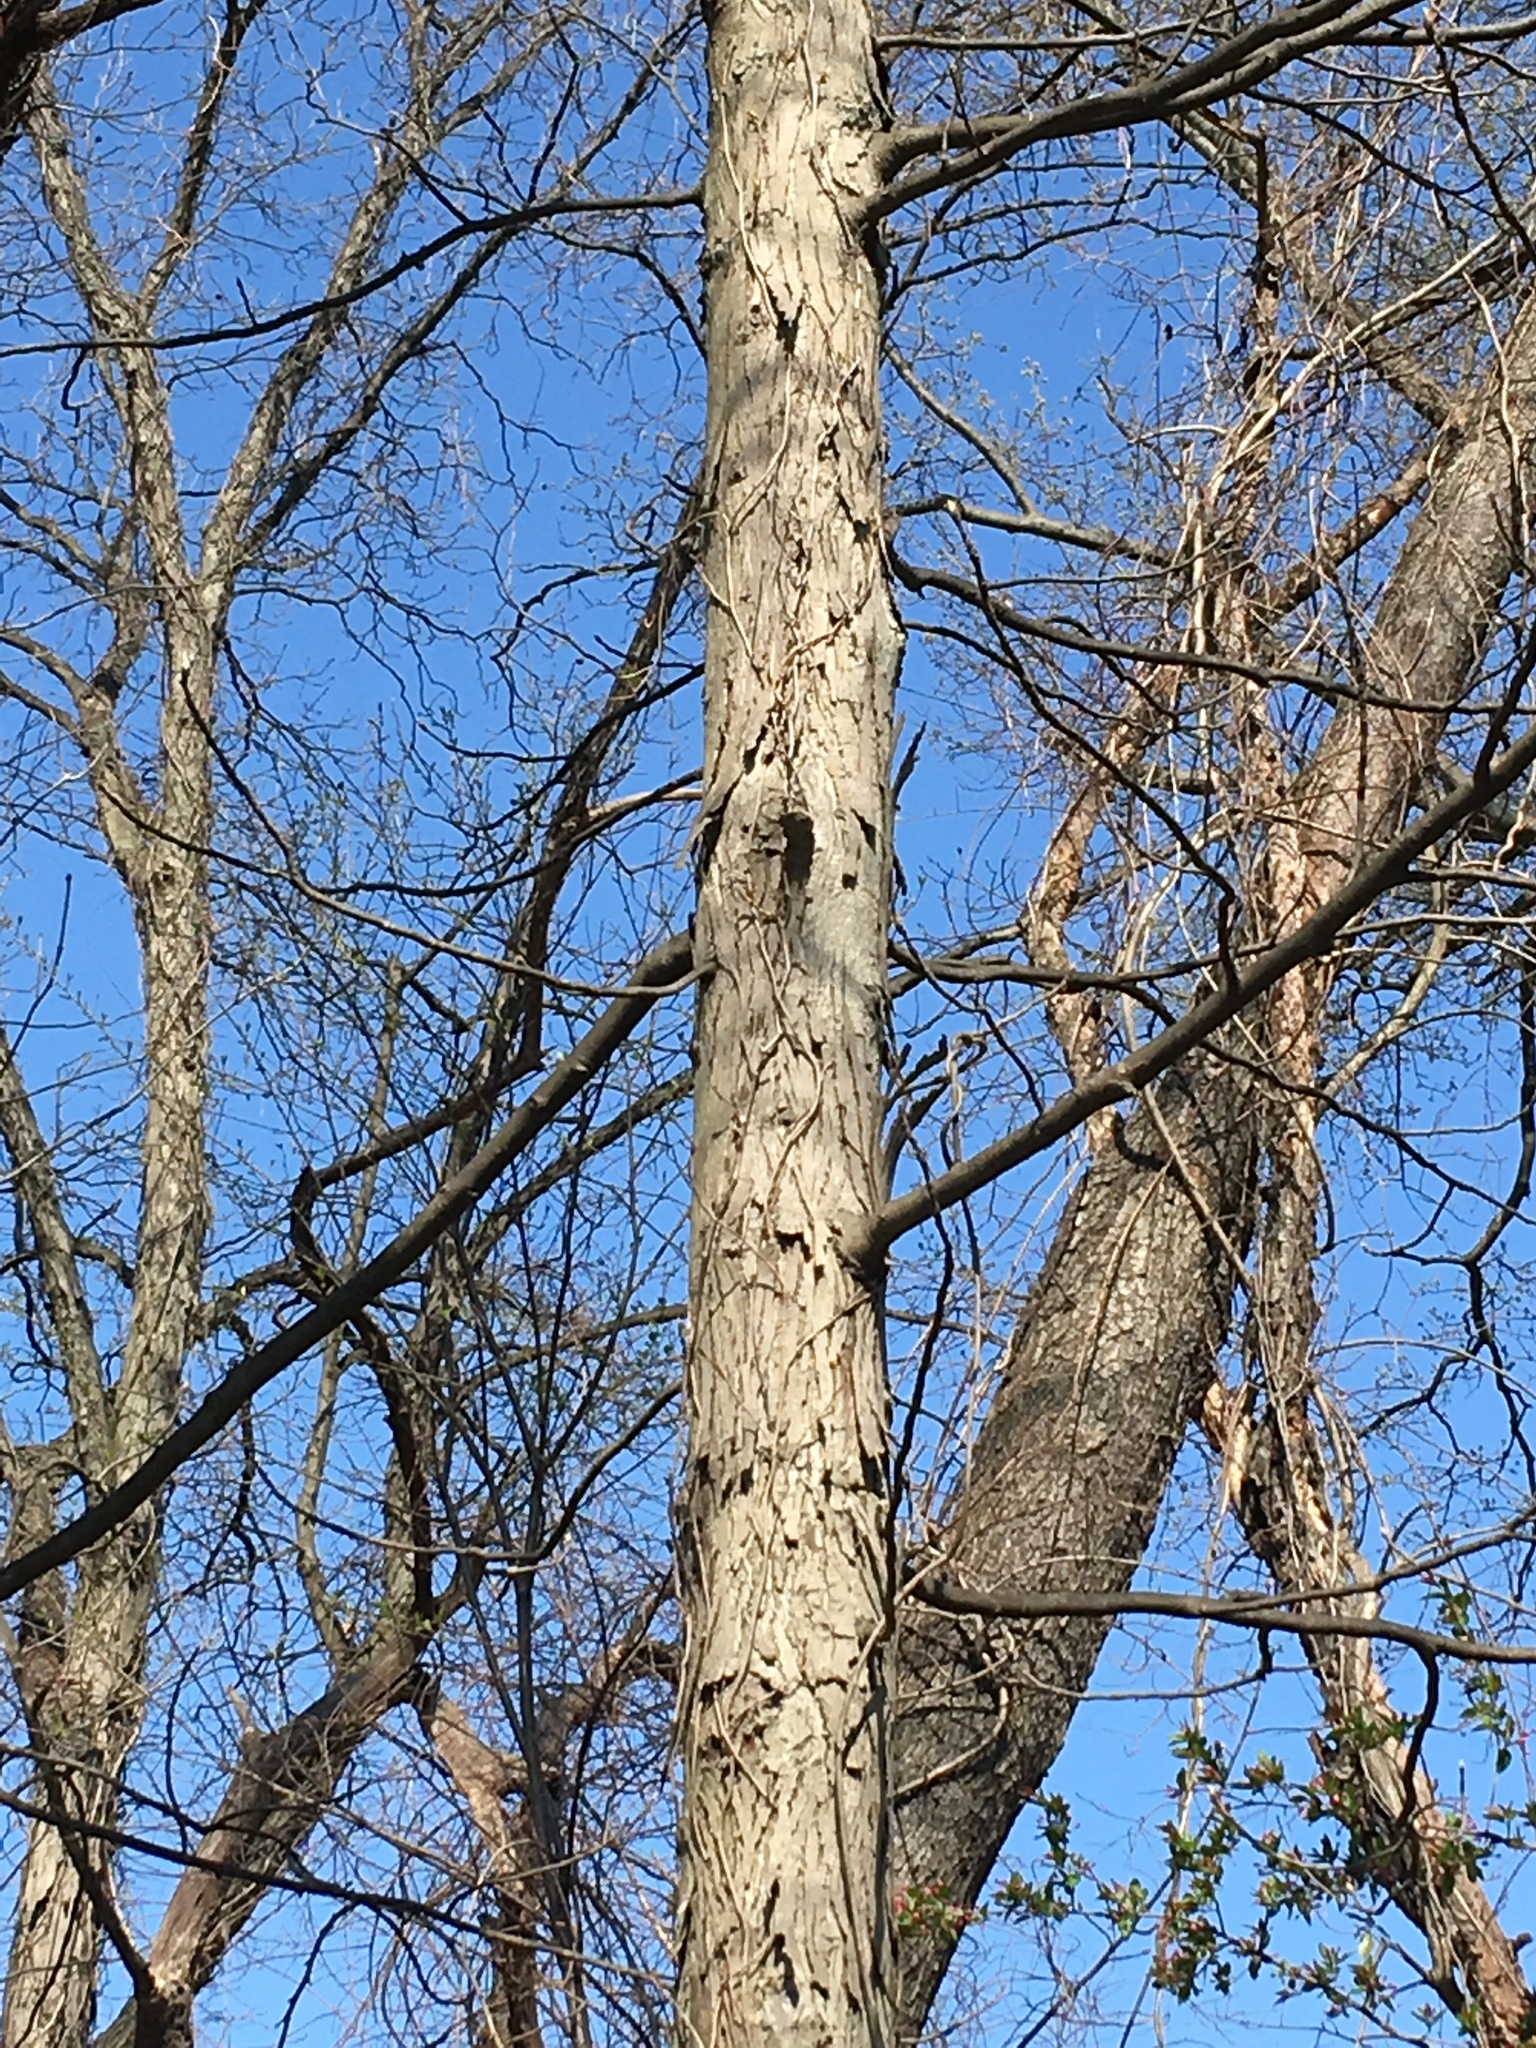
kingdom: Plantae
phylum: Tracheophyta
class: Magnoliopsida
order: Fagales
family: Juglandaceae
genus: Carya
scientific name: Carya ovata
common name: Shagbark hickory
